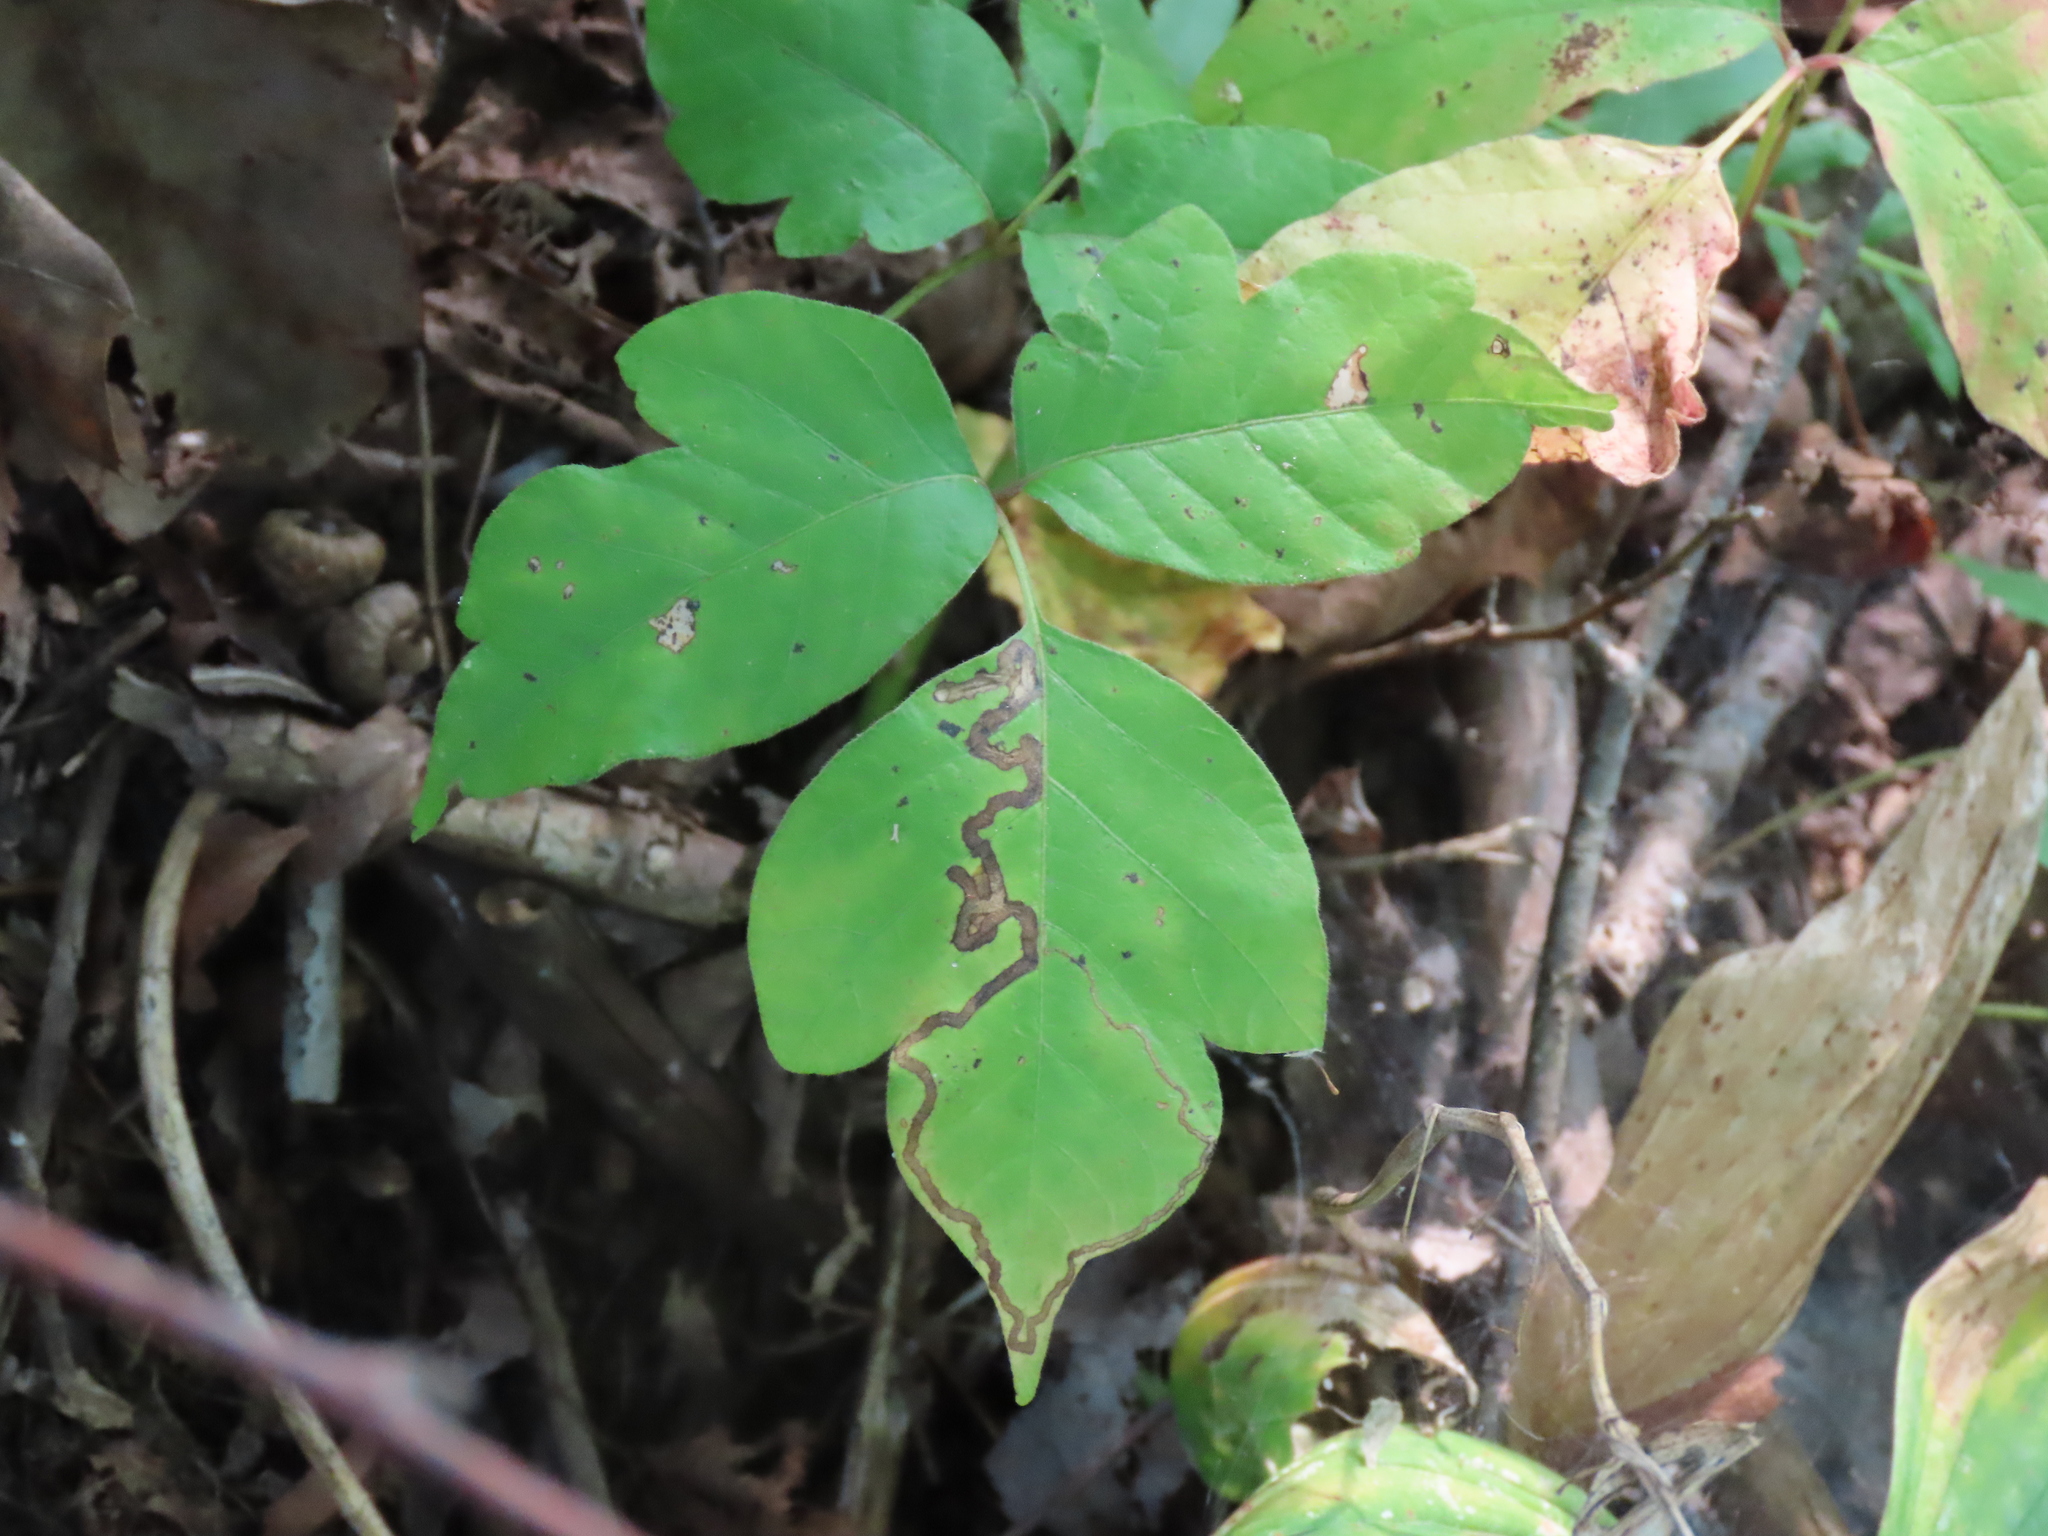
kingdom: Animalia
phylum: Arthropoda
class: Insecta
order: Lepidoptera
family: Nepticulidae
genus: Stigmella
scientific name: Stigmella rhoifoliella
